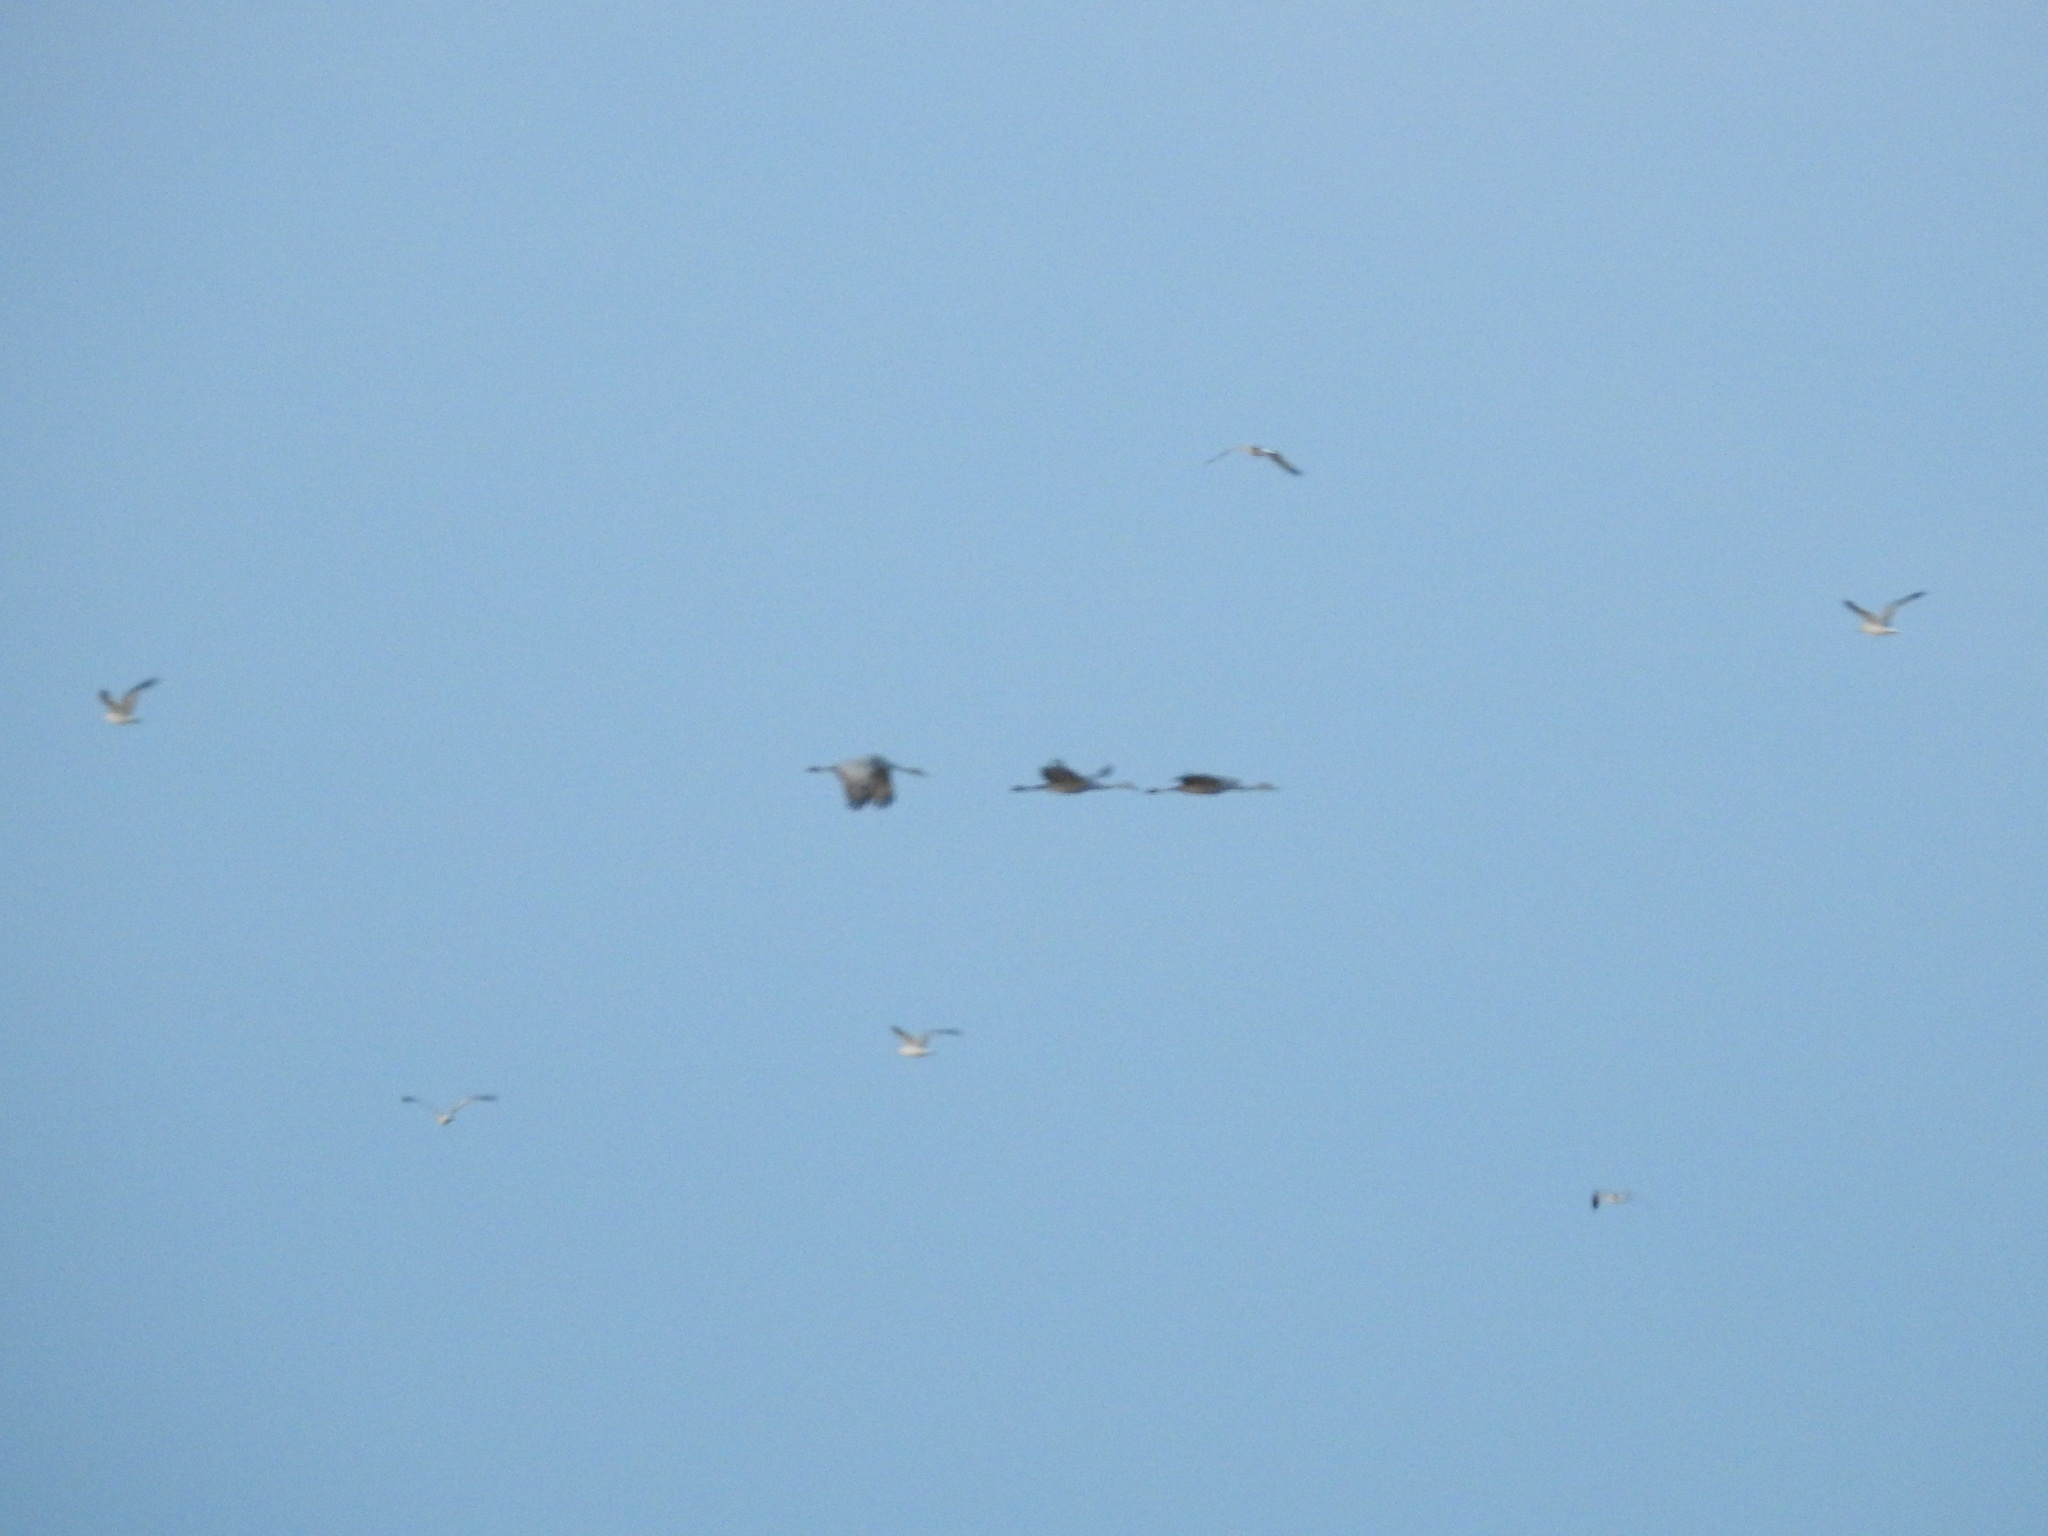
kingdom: Animalia
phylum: Chordata
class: Aves
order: Gruiformes
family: Gruidae
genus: Grus
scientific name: Grus canadensis
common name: Sandhill crane
